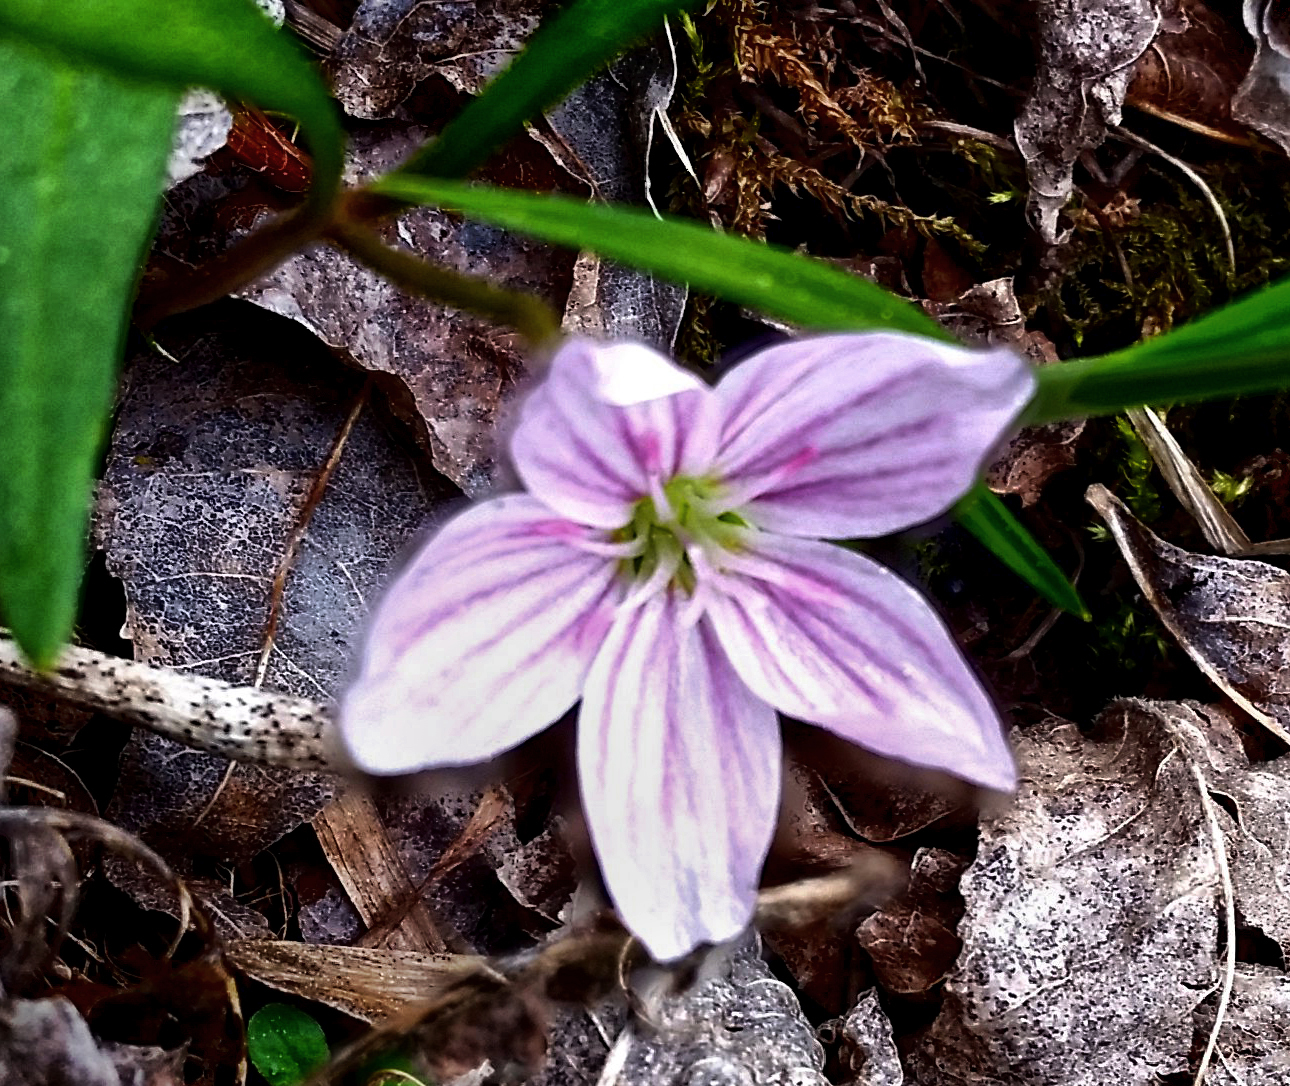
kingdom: Plantae
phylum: Tracheophyta
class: Magnoliopsida
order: Caryophyllales
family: Montiaceae
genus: Claytonia
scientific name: Claytonia virginica
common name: Virginia springbeauty
